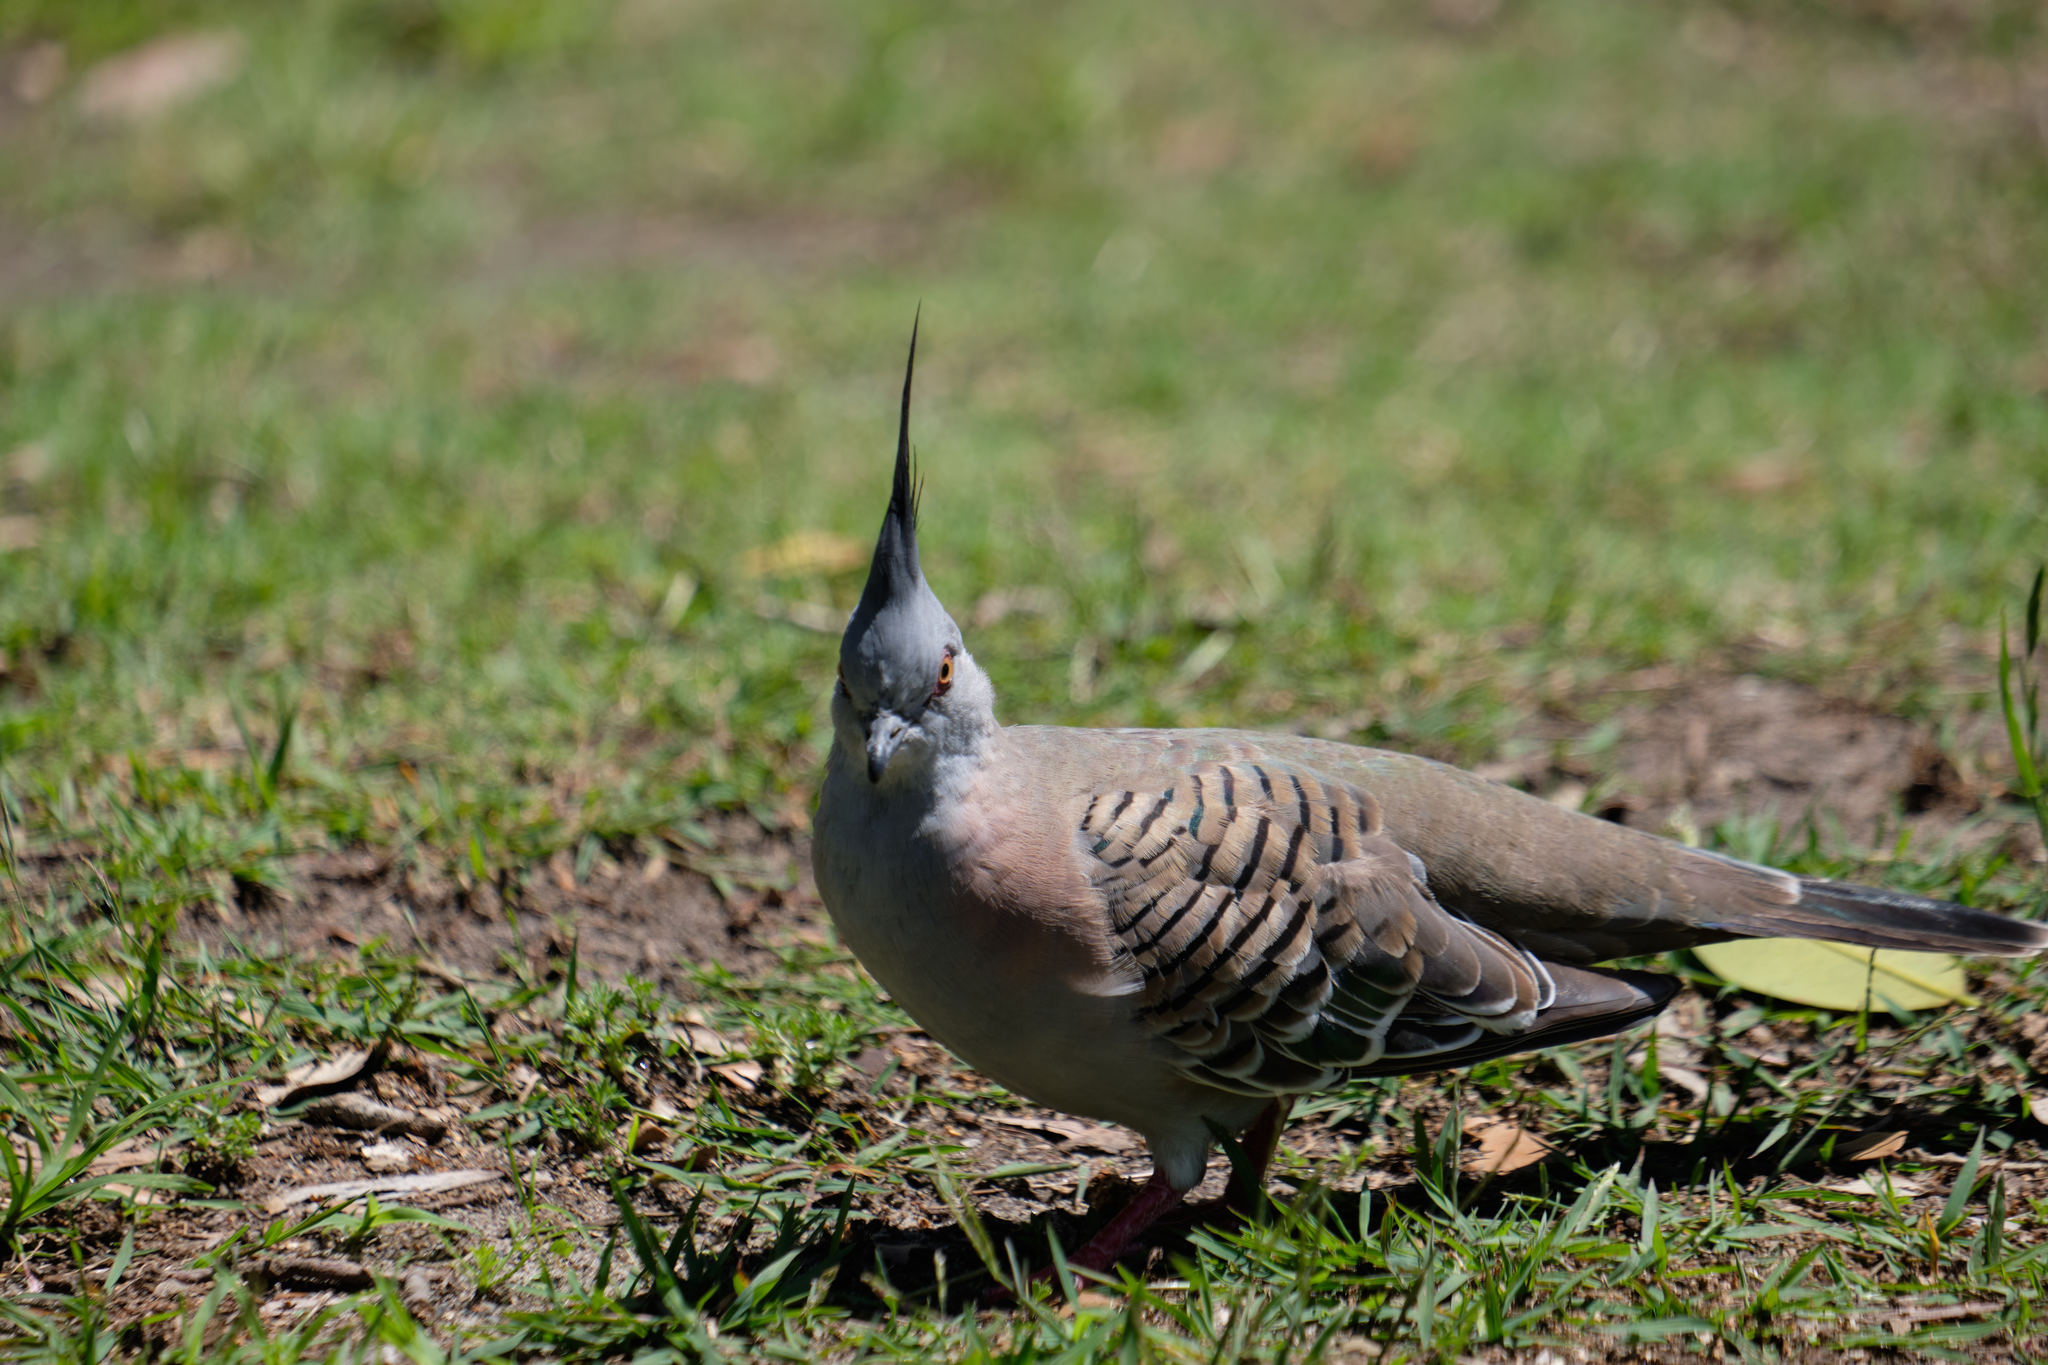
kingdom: Animalia
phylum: Chordata
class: Aves
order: Columbiformes
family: Columbidae
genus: Ocyphaps
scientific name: Ocyphaps lophotes
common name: Crested pigeon
